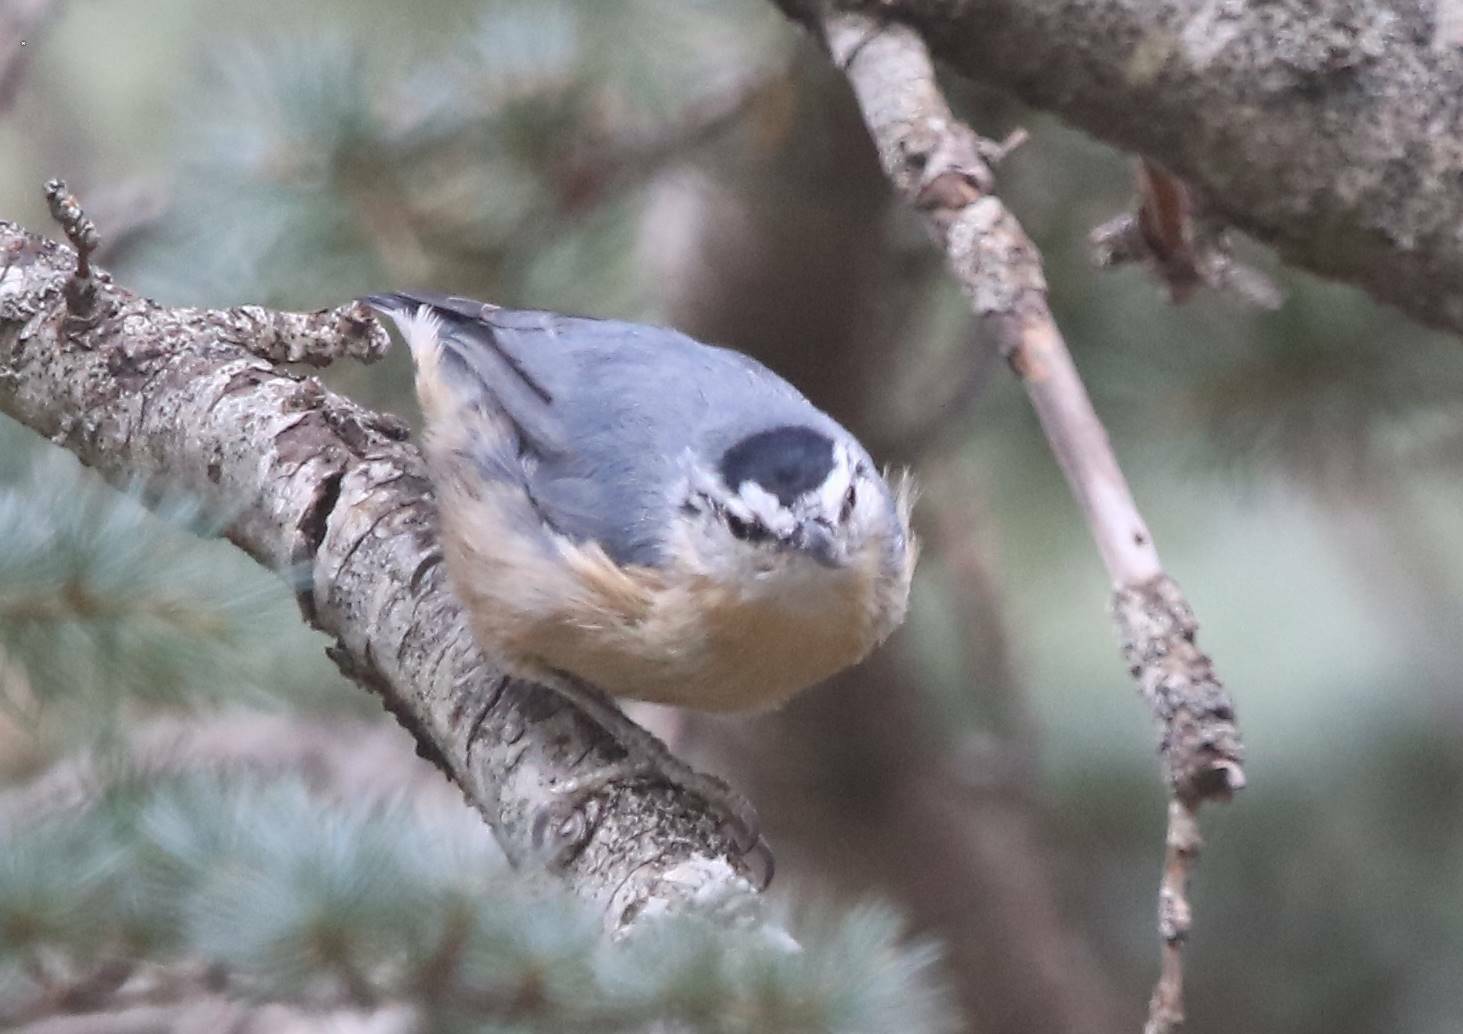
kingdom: Animalia
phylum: Chordata
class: Aves
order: Passeriformes
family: Sittidae
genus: Sitta
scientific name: Sitta ledanti
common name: Algerian nuthatch
